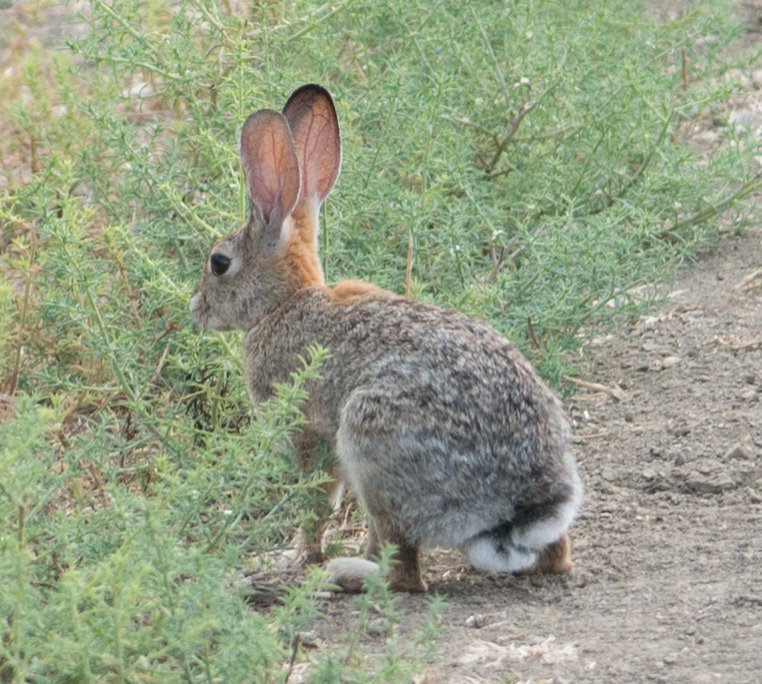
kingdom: Animalia
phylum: Chordata
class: Mammalia
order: Lagomorpha
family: Leporidae
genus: Sylvilagus
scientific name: Sylvilagus audubonii
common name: Desert cottontail
